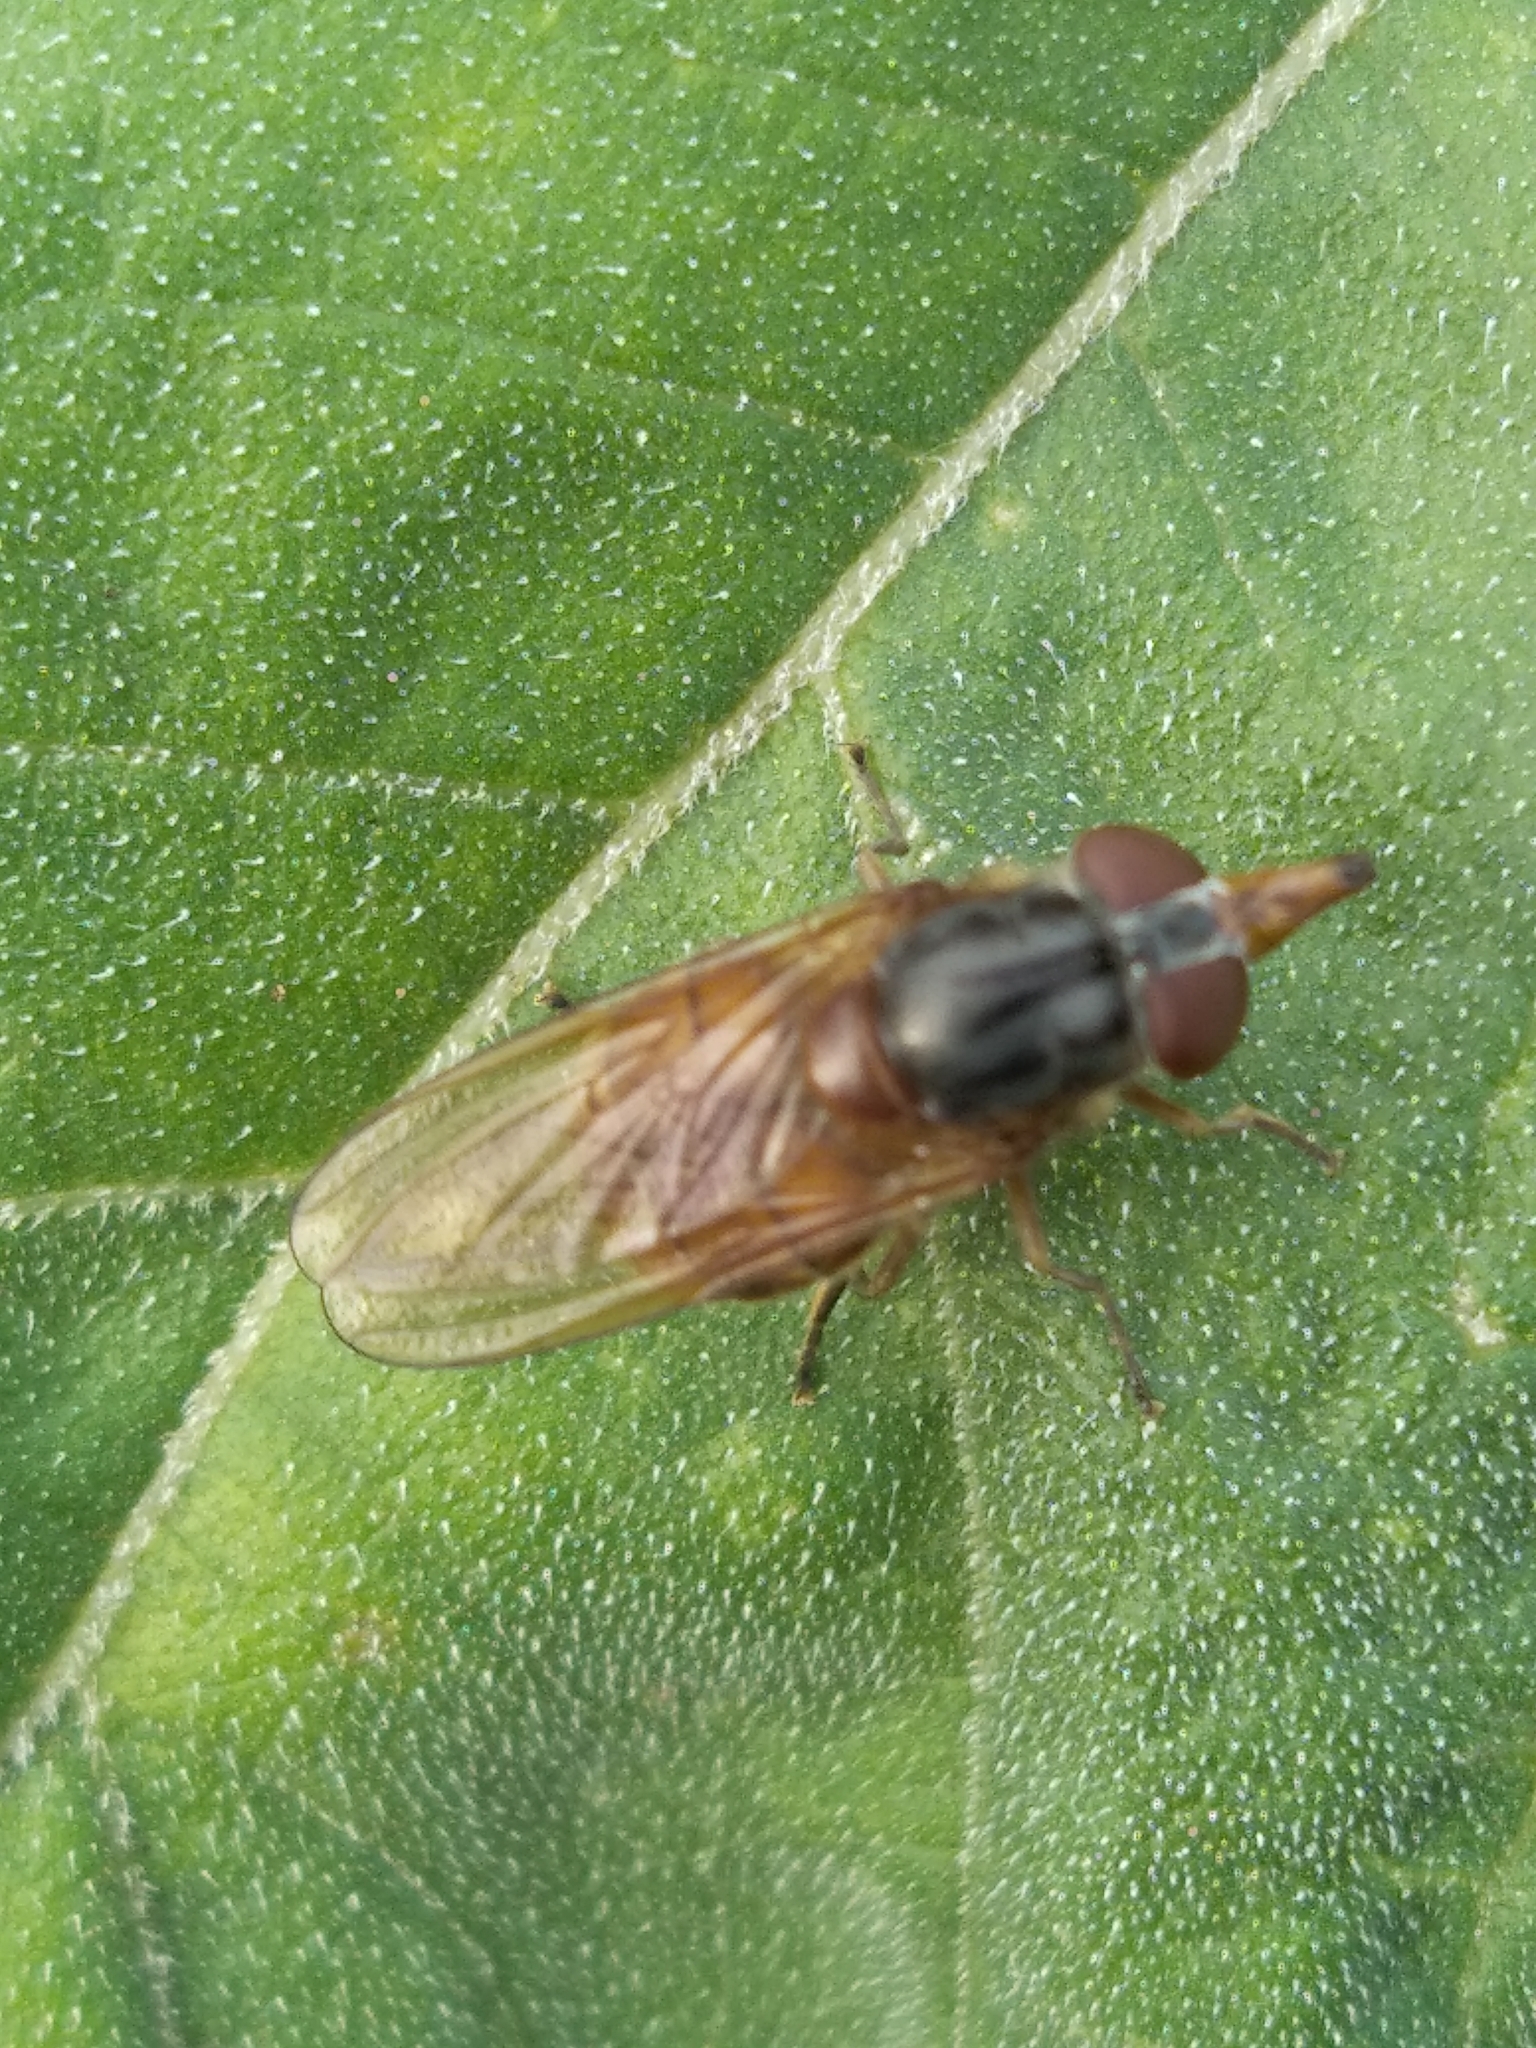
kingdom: Animalia
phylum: Arthropoda
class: Insecta
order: Diptera
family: Syrphidae
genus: Rhingia
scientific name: Rhingia campestris
